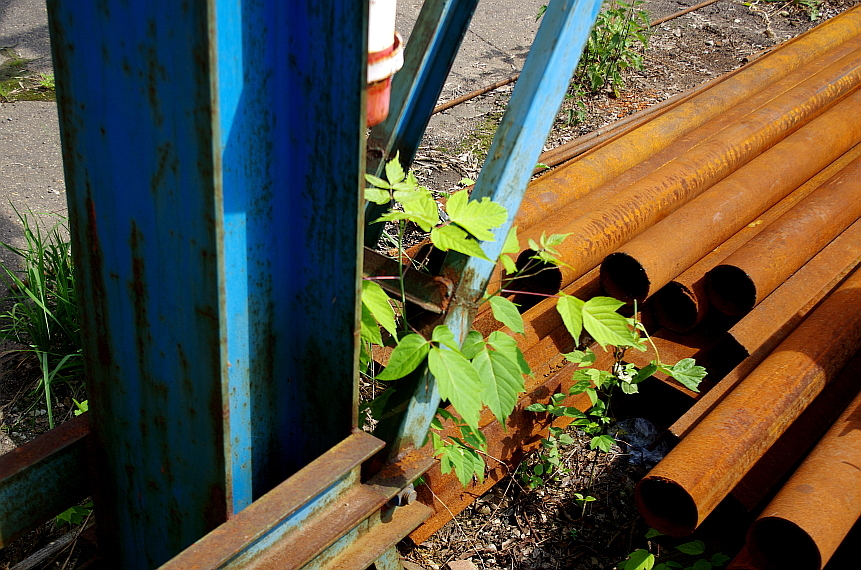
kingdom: Plantae
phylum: Tracheophyta
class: Magnoliopsida
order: Sapindales
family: Sapindaceae
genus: Acer
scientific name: Acer negundo
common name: Ashleaf maple
